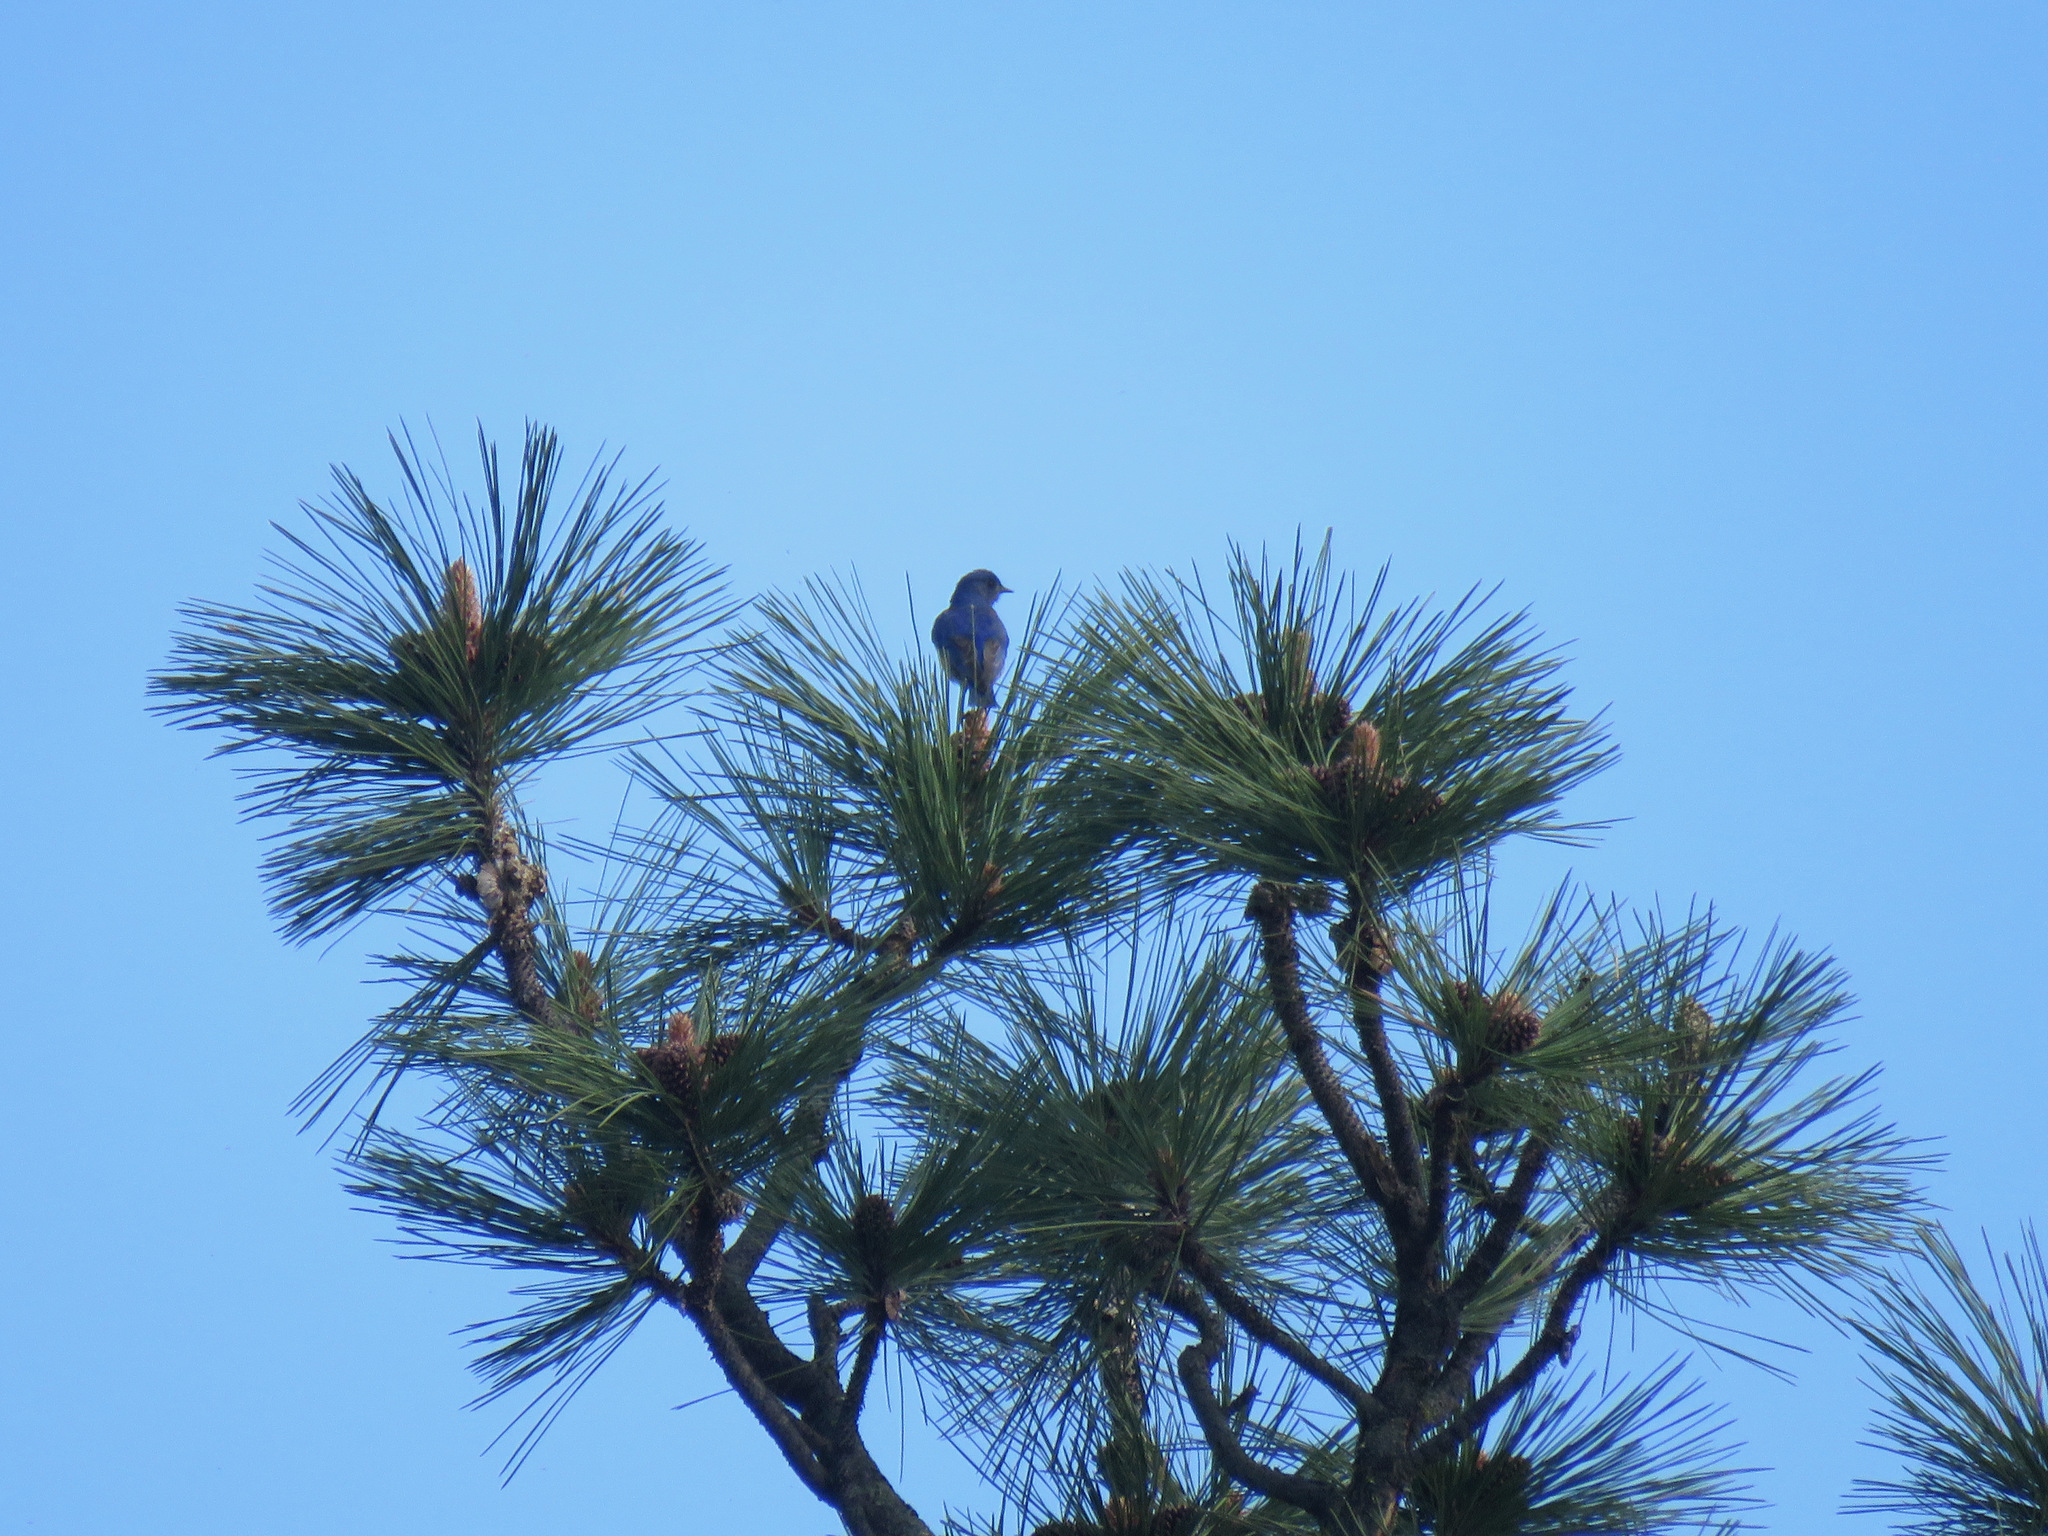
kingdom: Animalia
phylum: Chordata
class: Aves
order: Passeriformes
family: Turdidae
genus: Sialia
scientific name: Sialia mexicana
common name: Western bluebird
